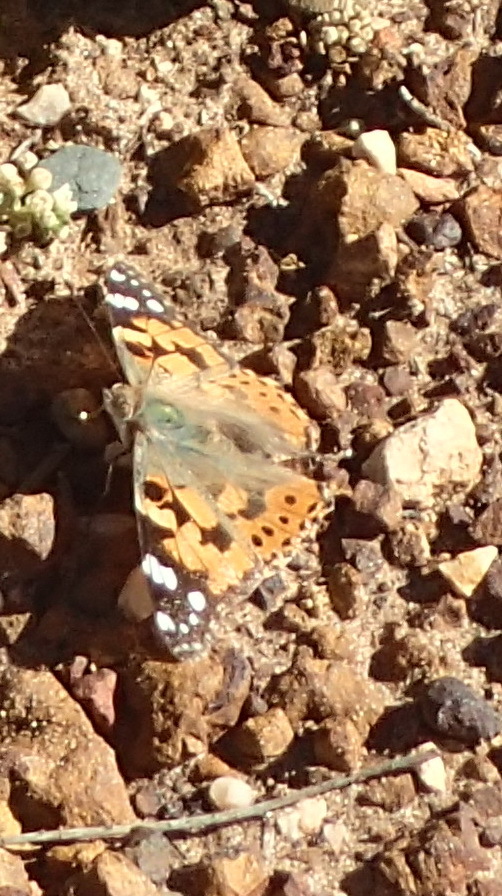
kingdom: Animalia
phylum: Arthropoda
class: Insecta
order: Lepidoptera
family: Nymphalidae
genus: Vanessa
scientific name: Vanessa cardui
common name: Painted lady
